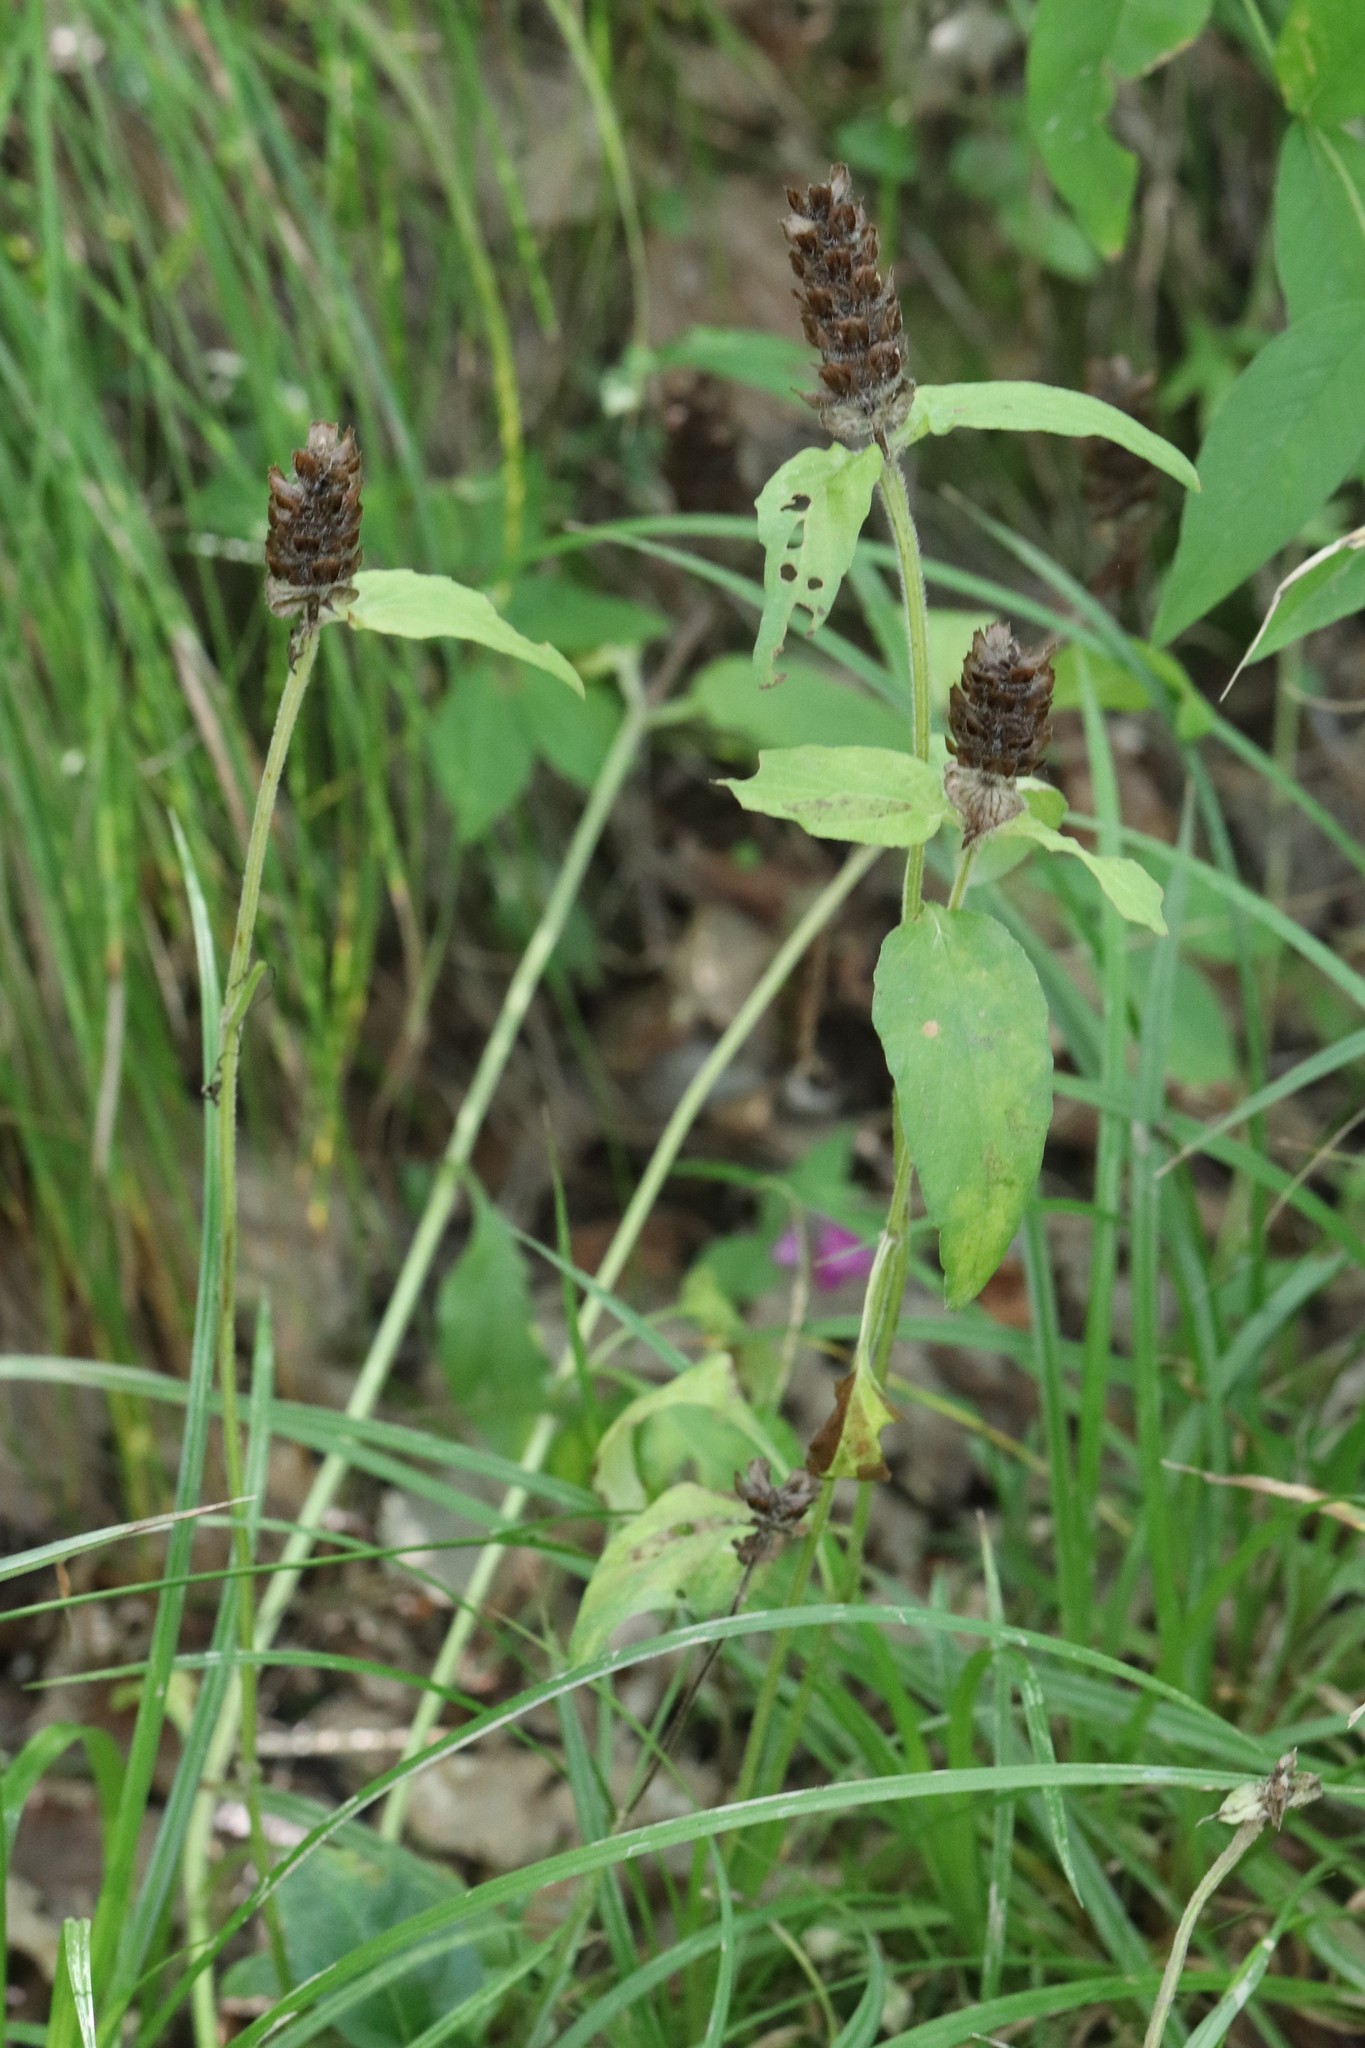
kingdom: Plantae
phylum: Tracheophyta
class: Magnoliopsida
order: Lamiales
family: Lamiaceae
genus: Prunella
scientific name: Prunella vulgaris
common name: Heal-all
